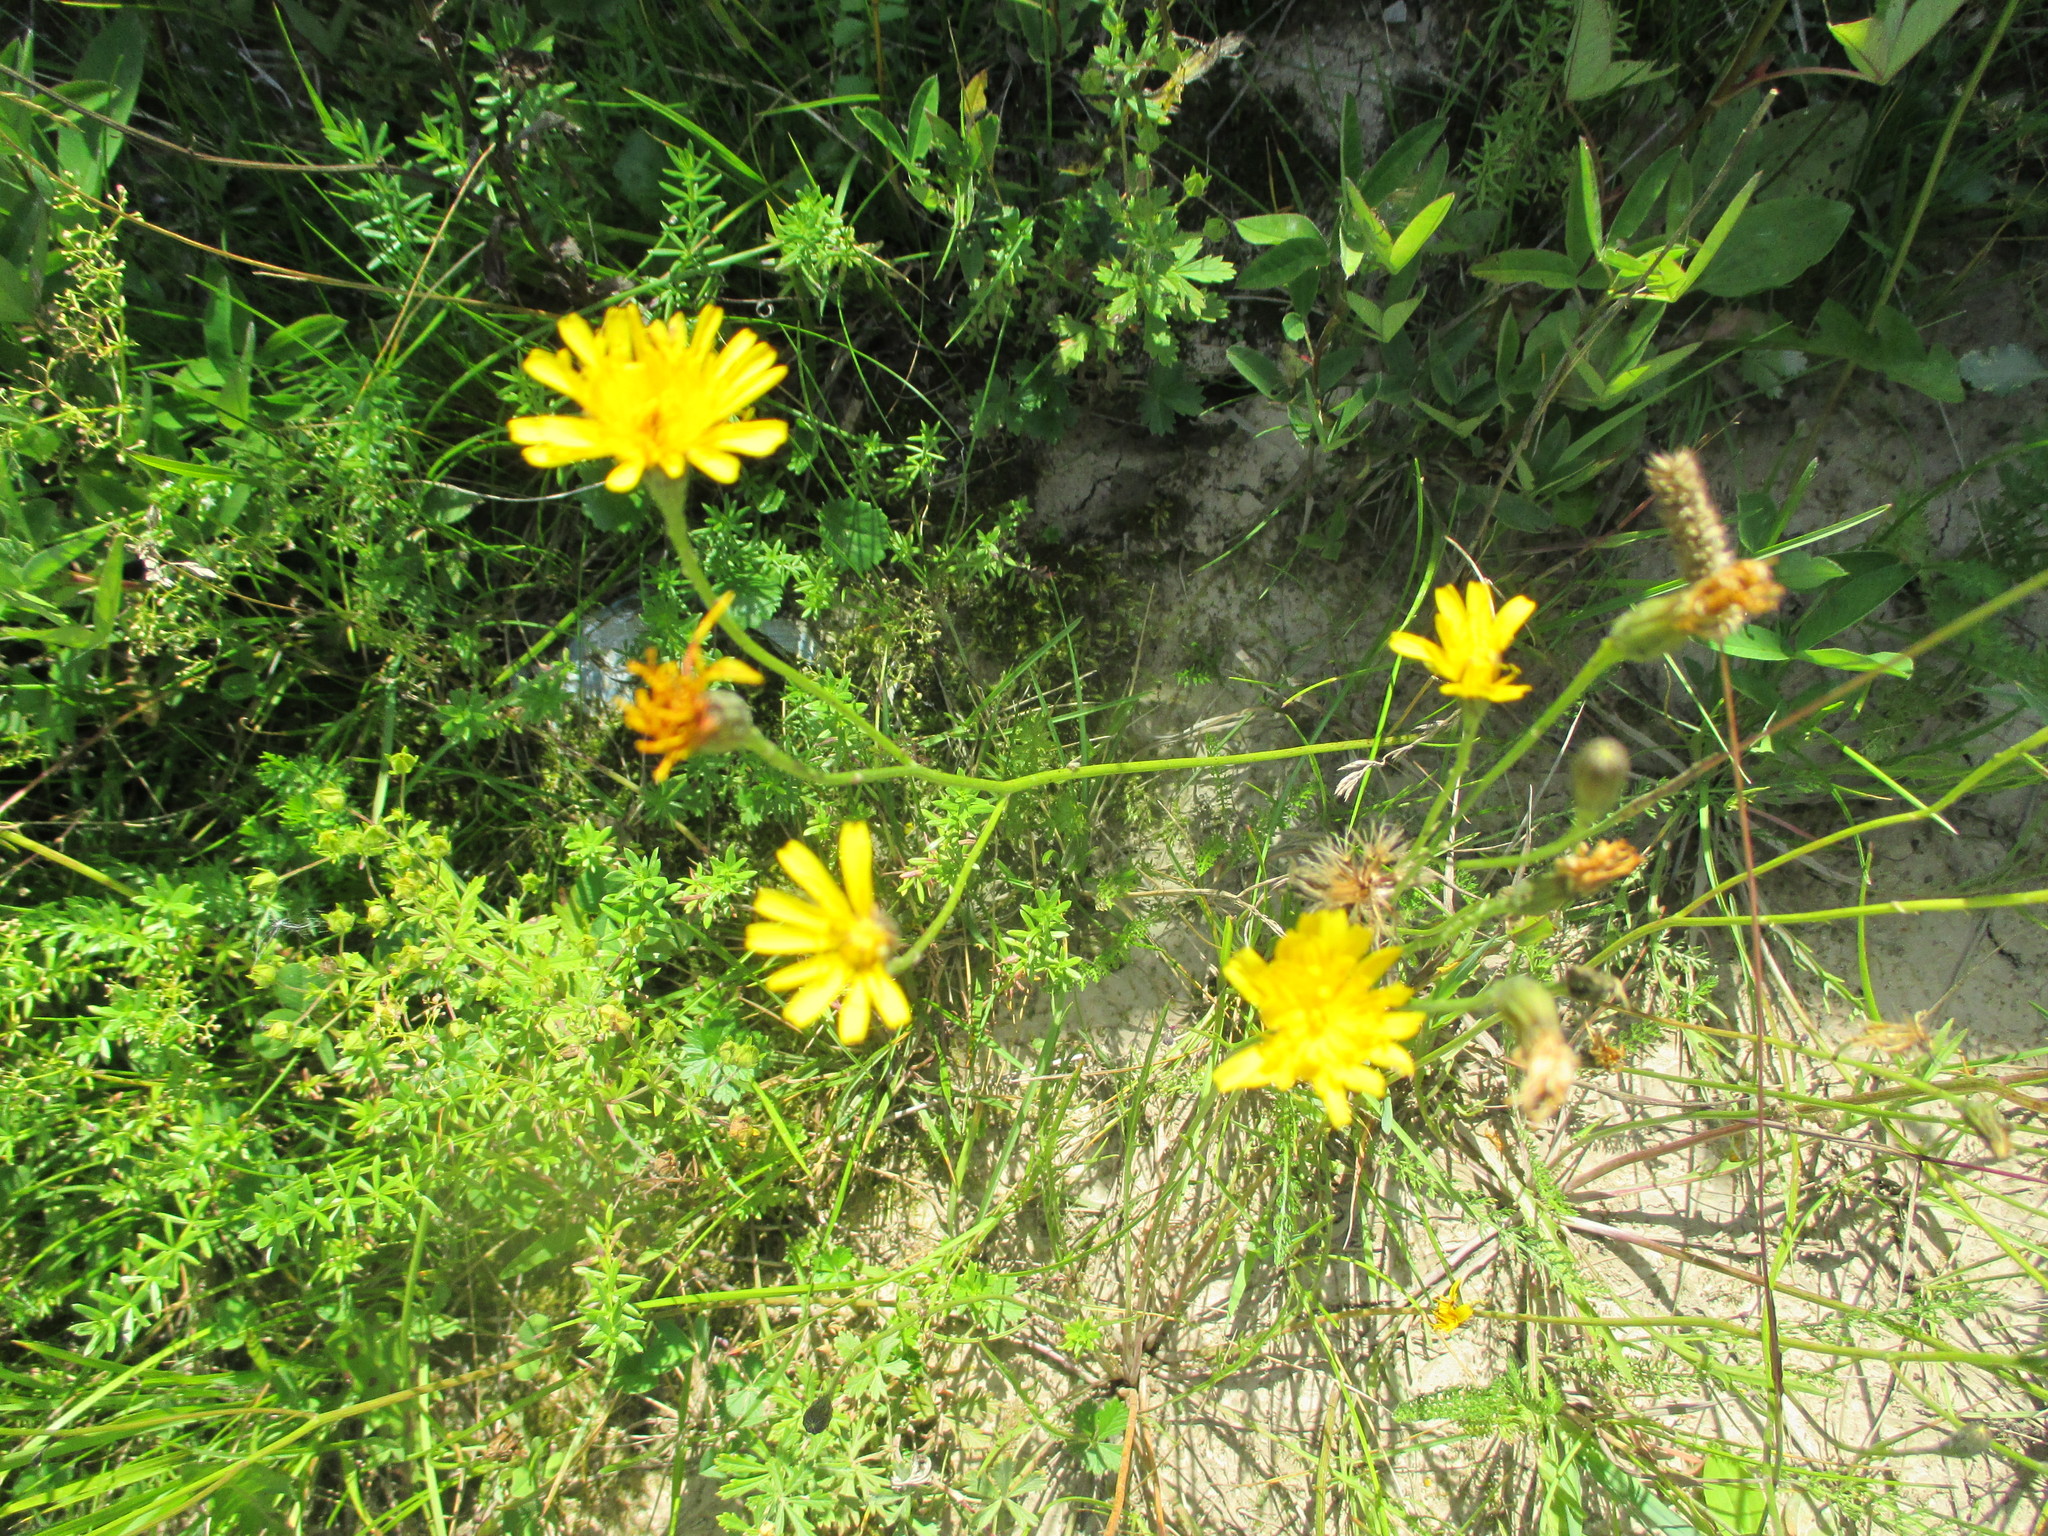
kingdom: Plantae
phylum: Tracheophyta
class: Magnoliopsida
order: Asterales
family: Asteraceae
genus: Scorzoneroides
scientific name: Scorzoneroides autumnalis
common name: Autumn hawkbit
